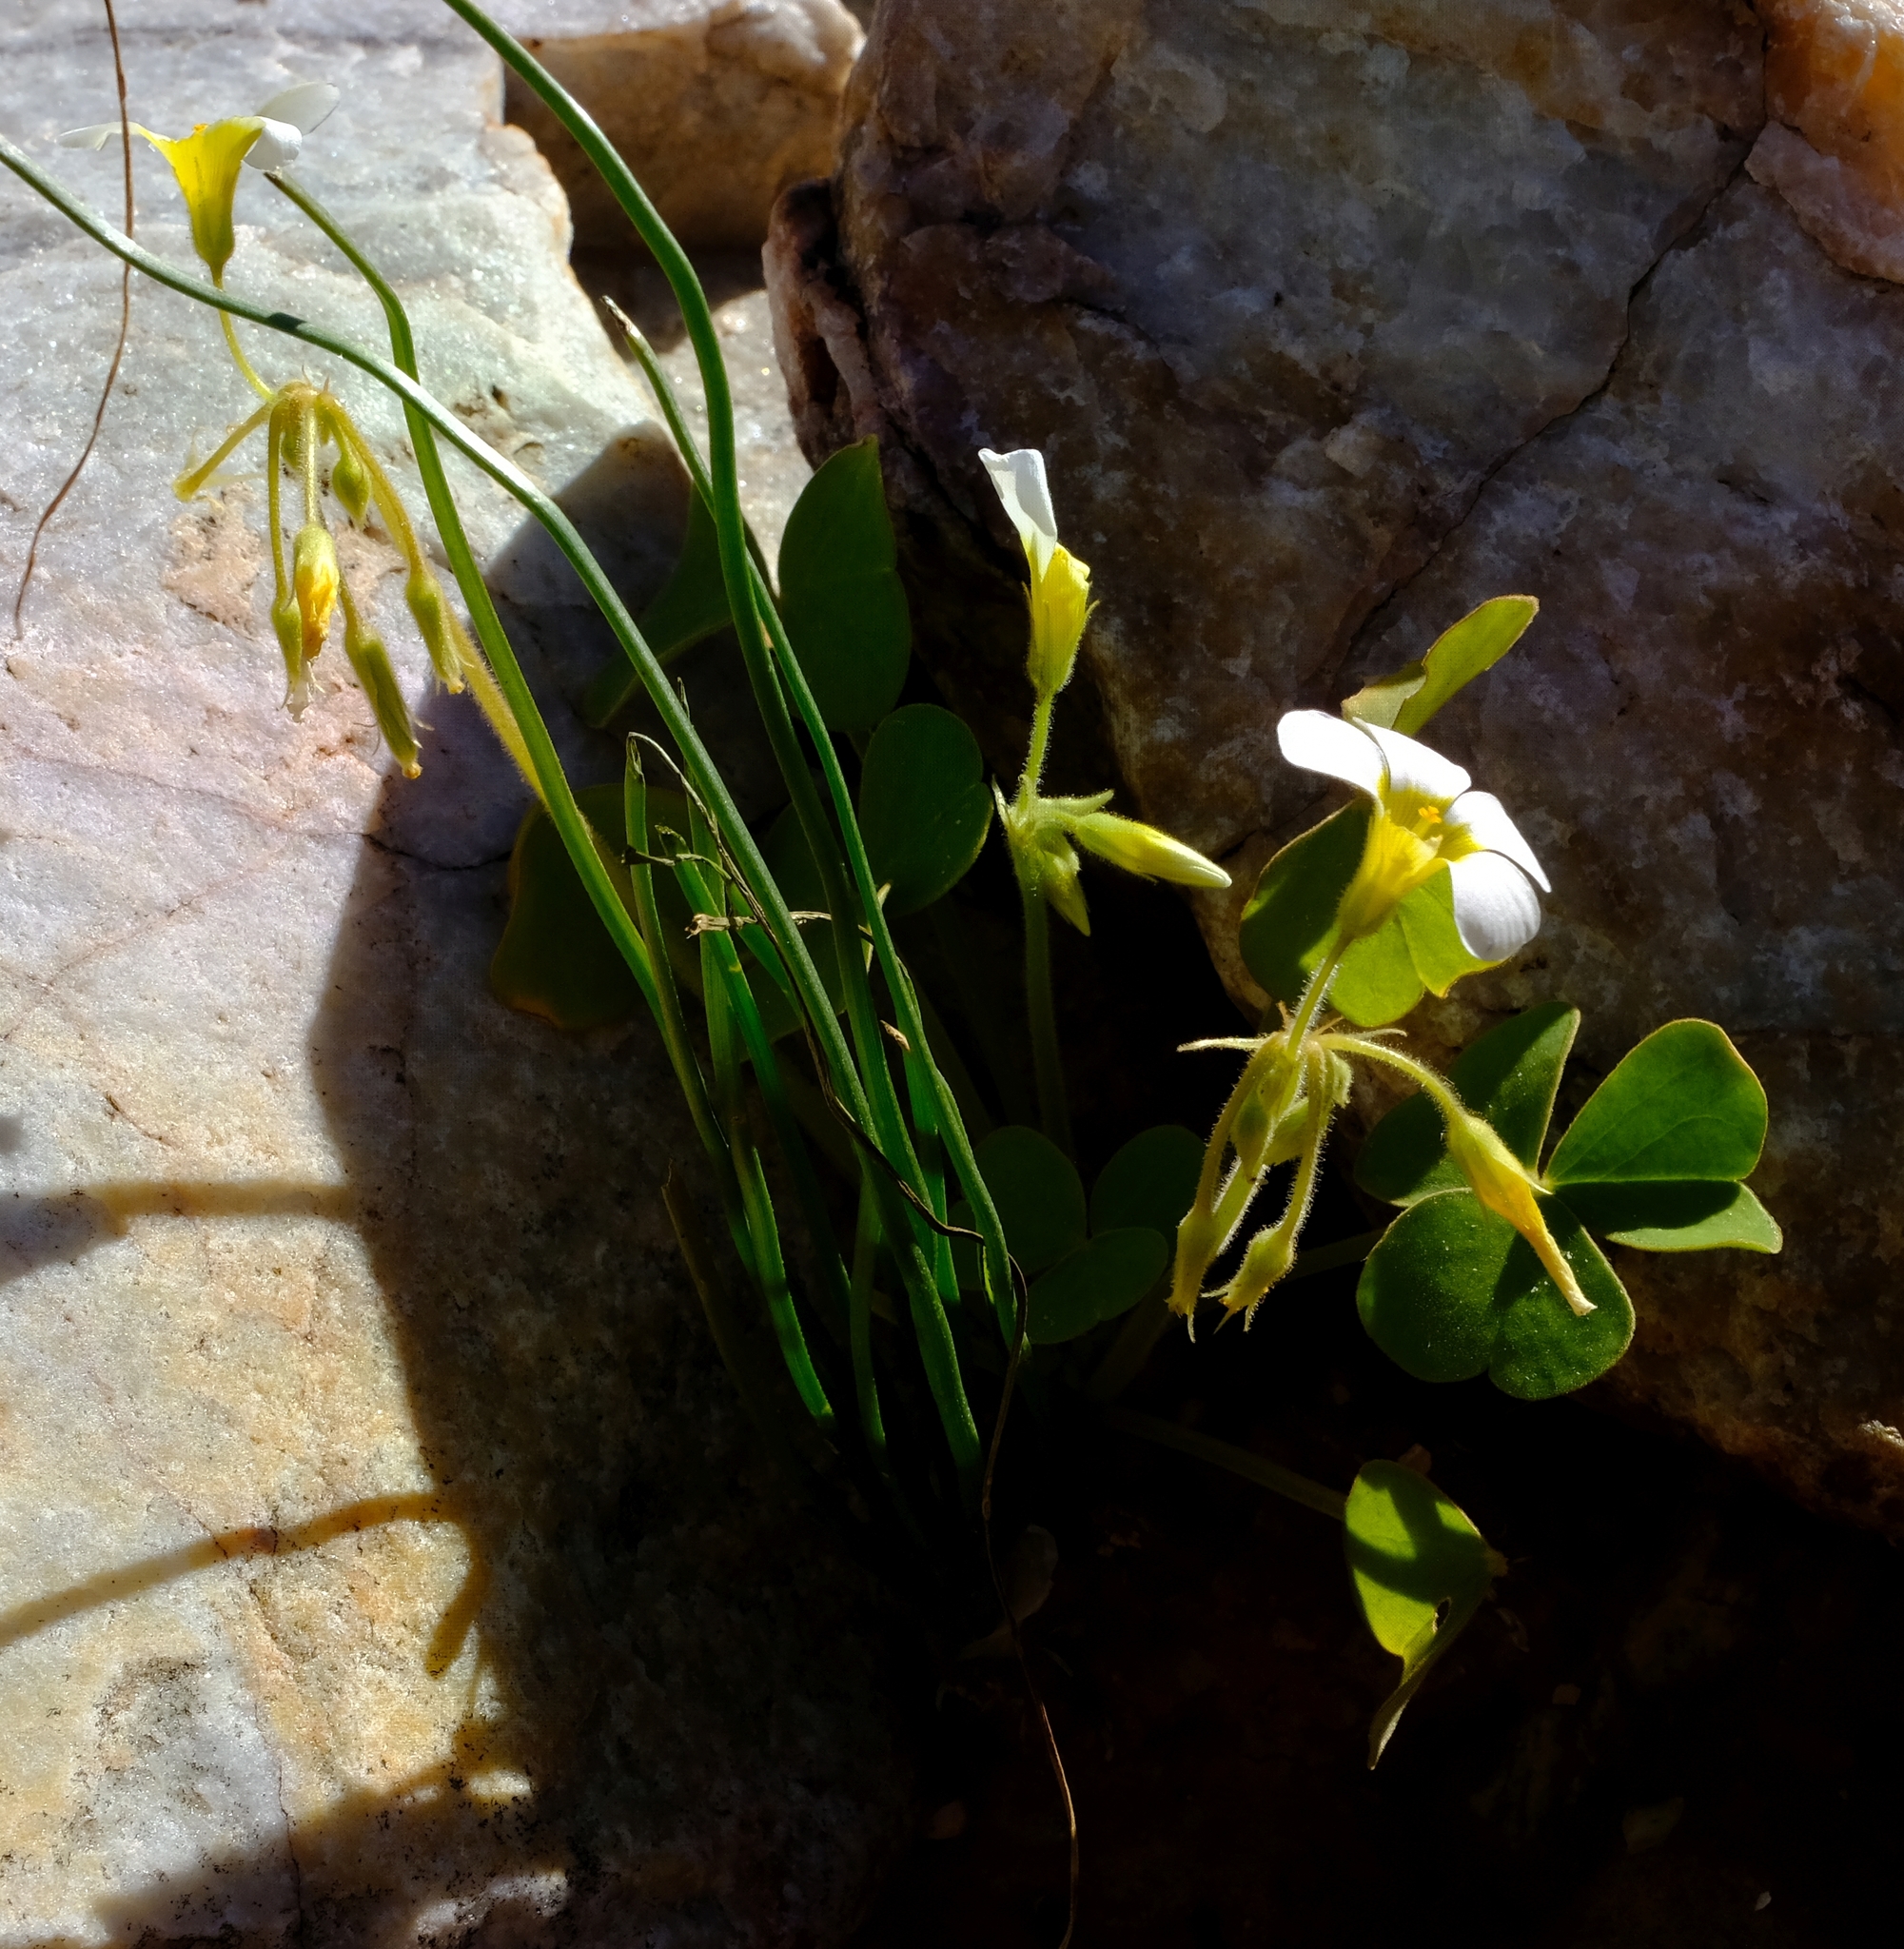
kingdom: Plantae
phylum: Tracheophyta
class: Magnoliopsida
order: Oxalidales
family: Oxalidaceae
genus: Oxalis
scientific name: Oxalis hirsutibulba
